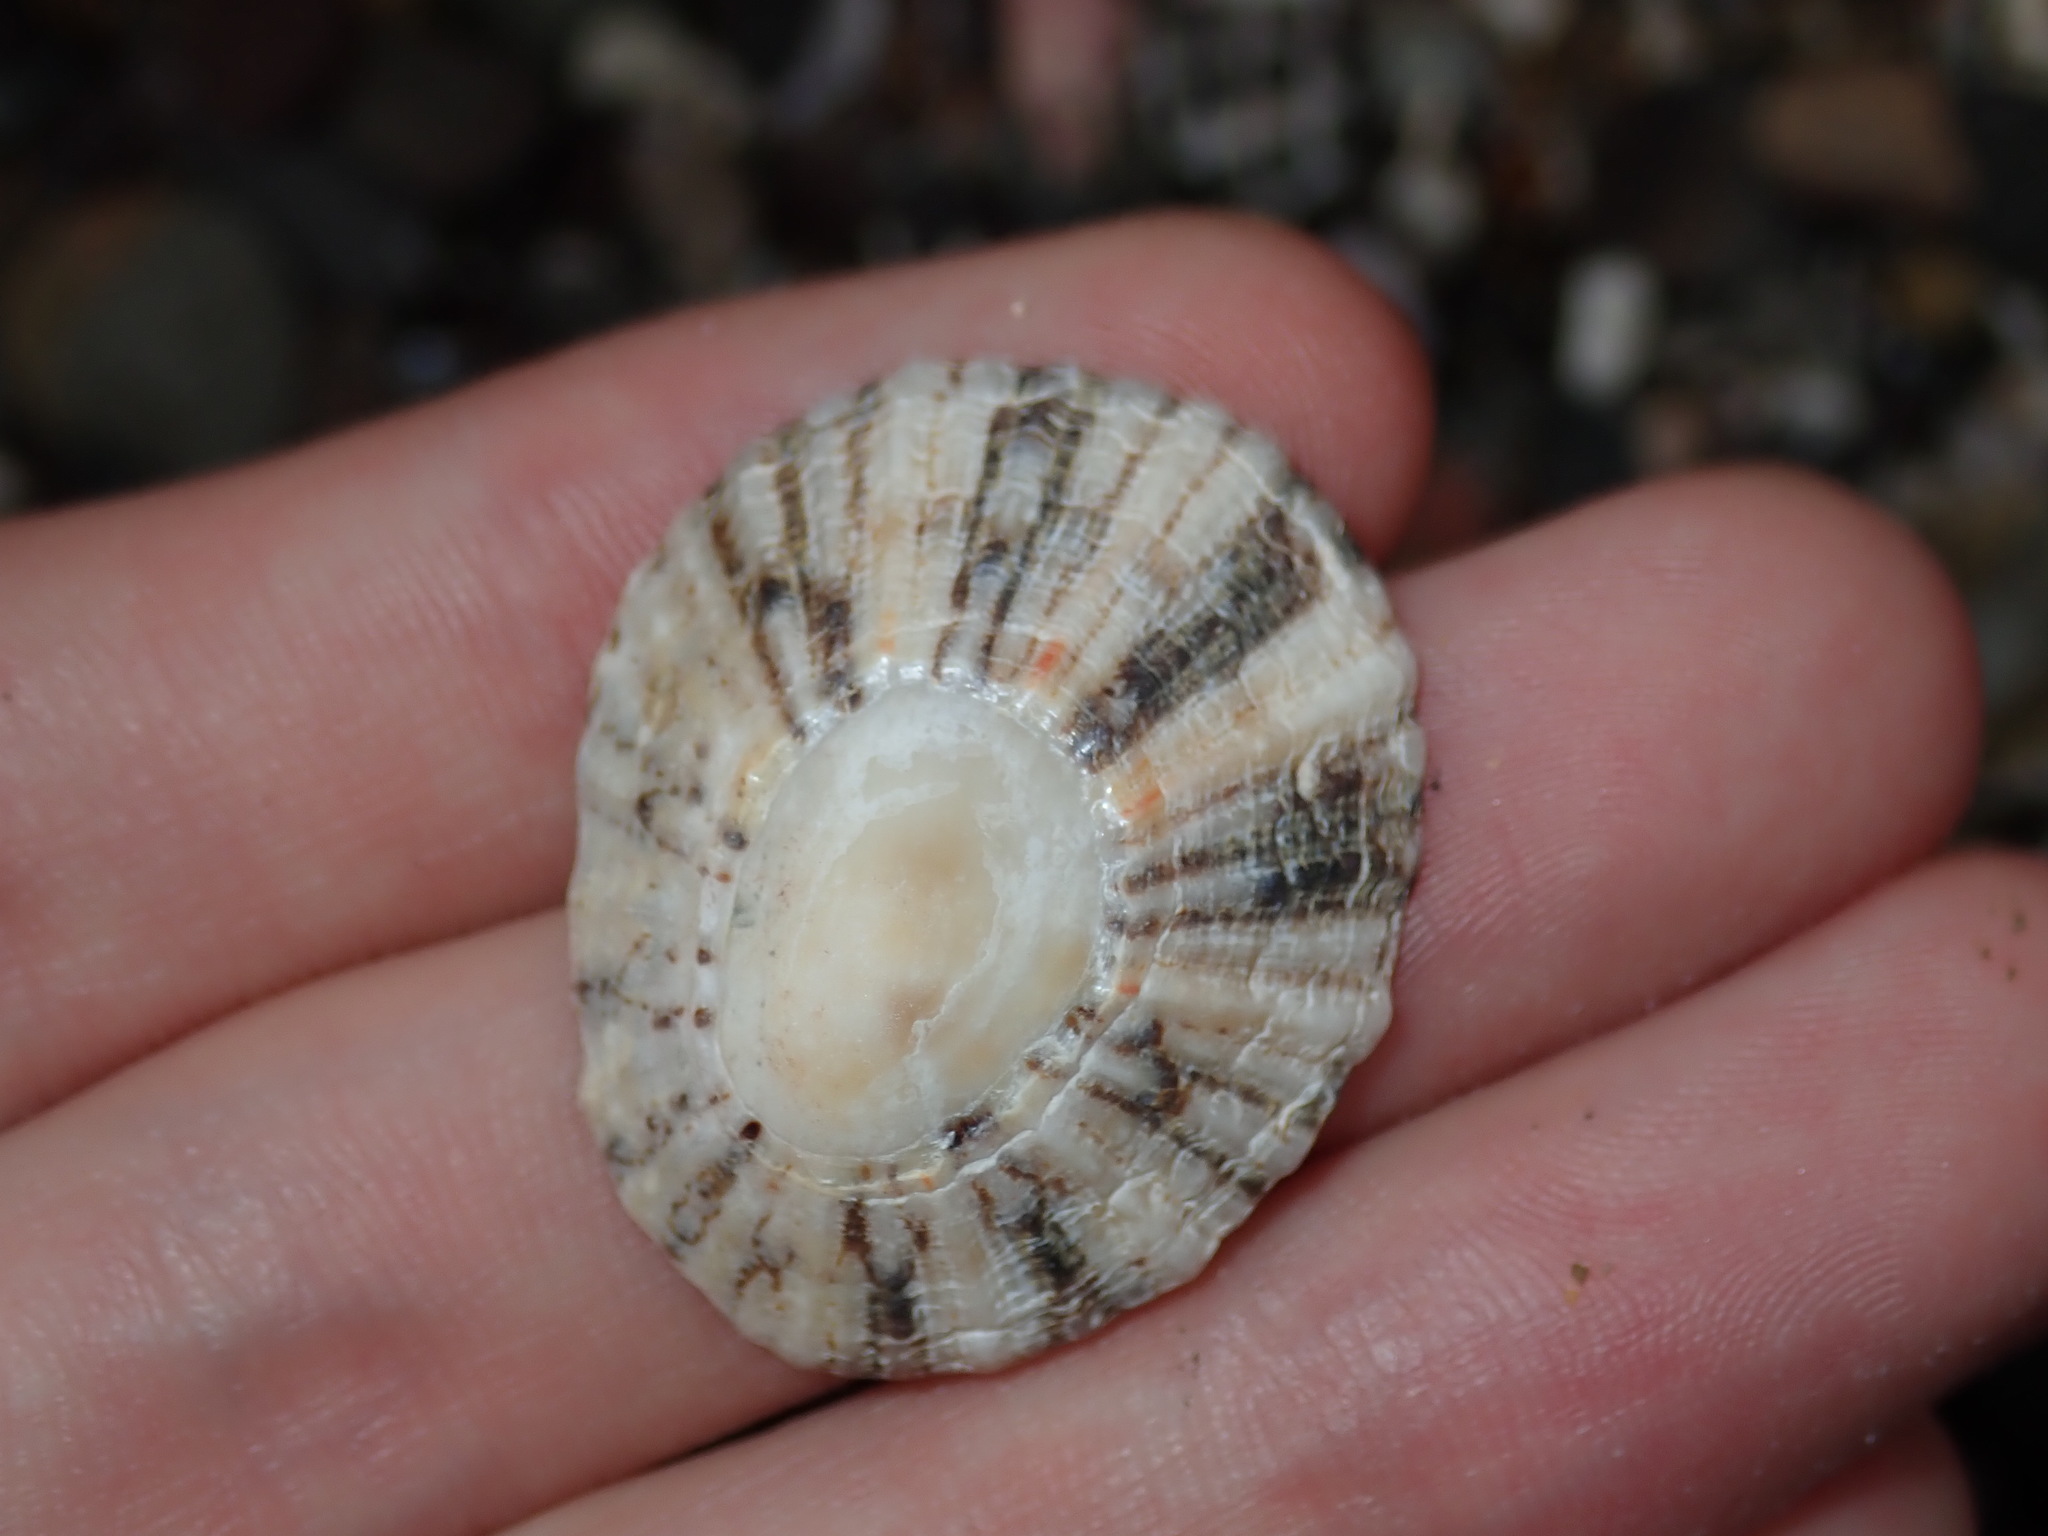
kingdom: Animalia
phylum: Mollusca
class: Gastropoda
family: Nacellidae
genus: Cellana
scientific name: Cellana tramoserica
